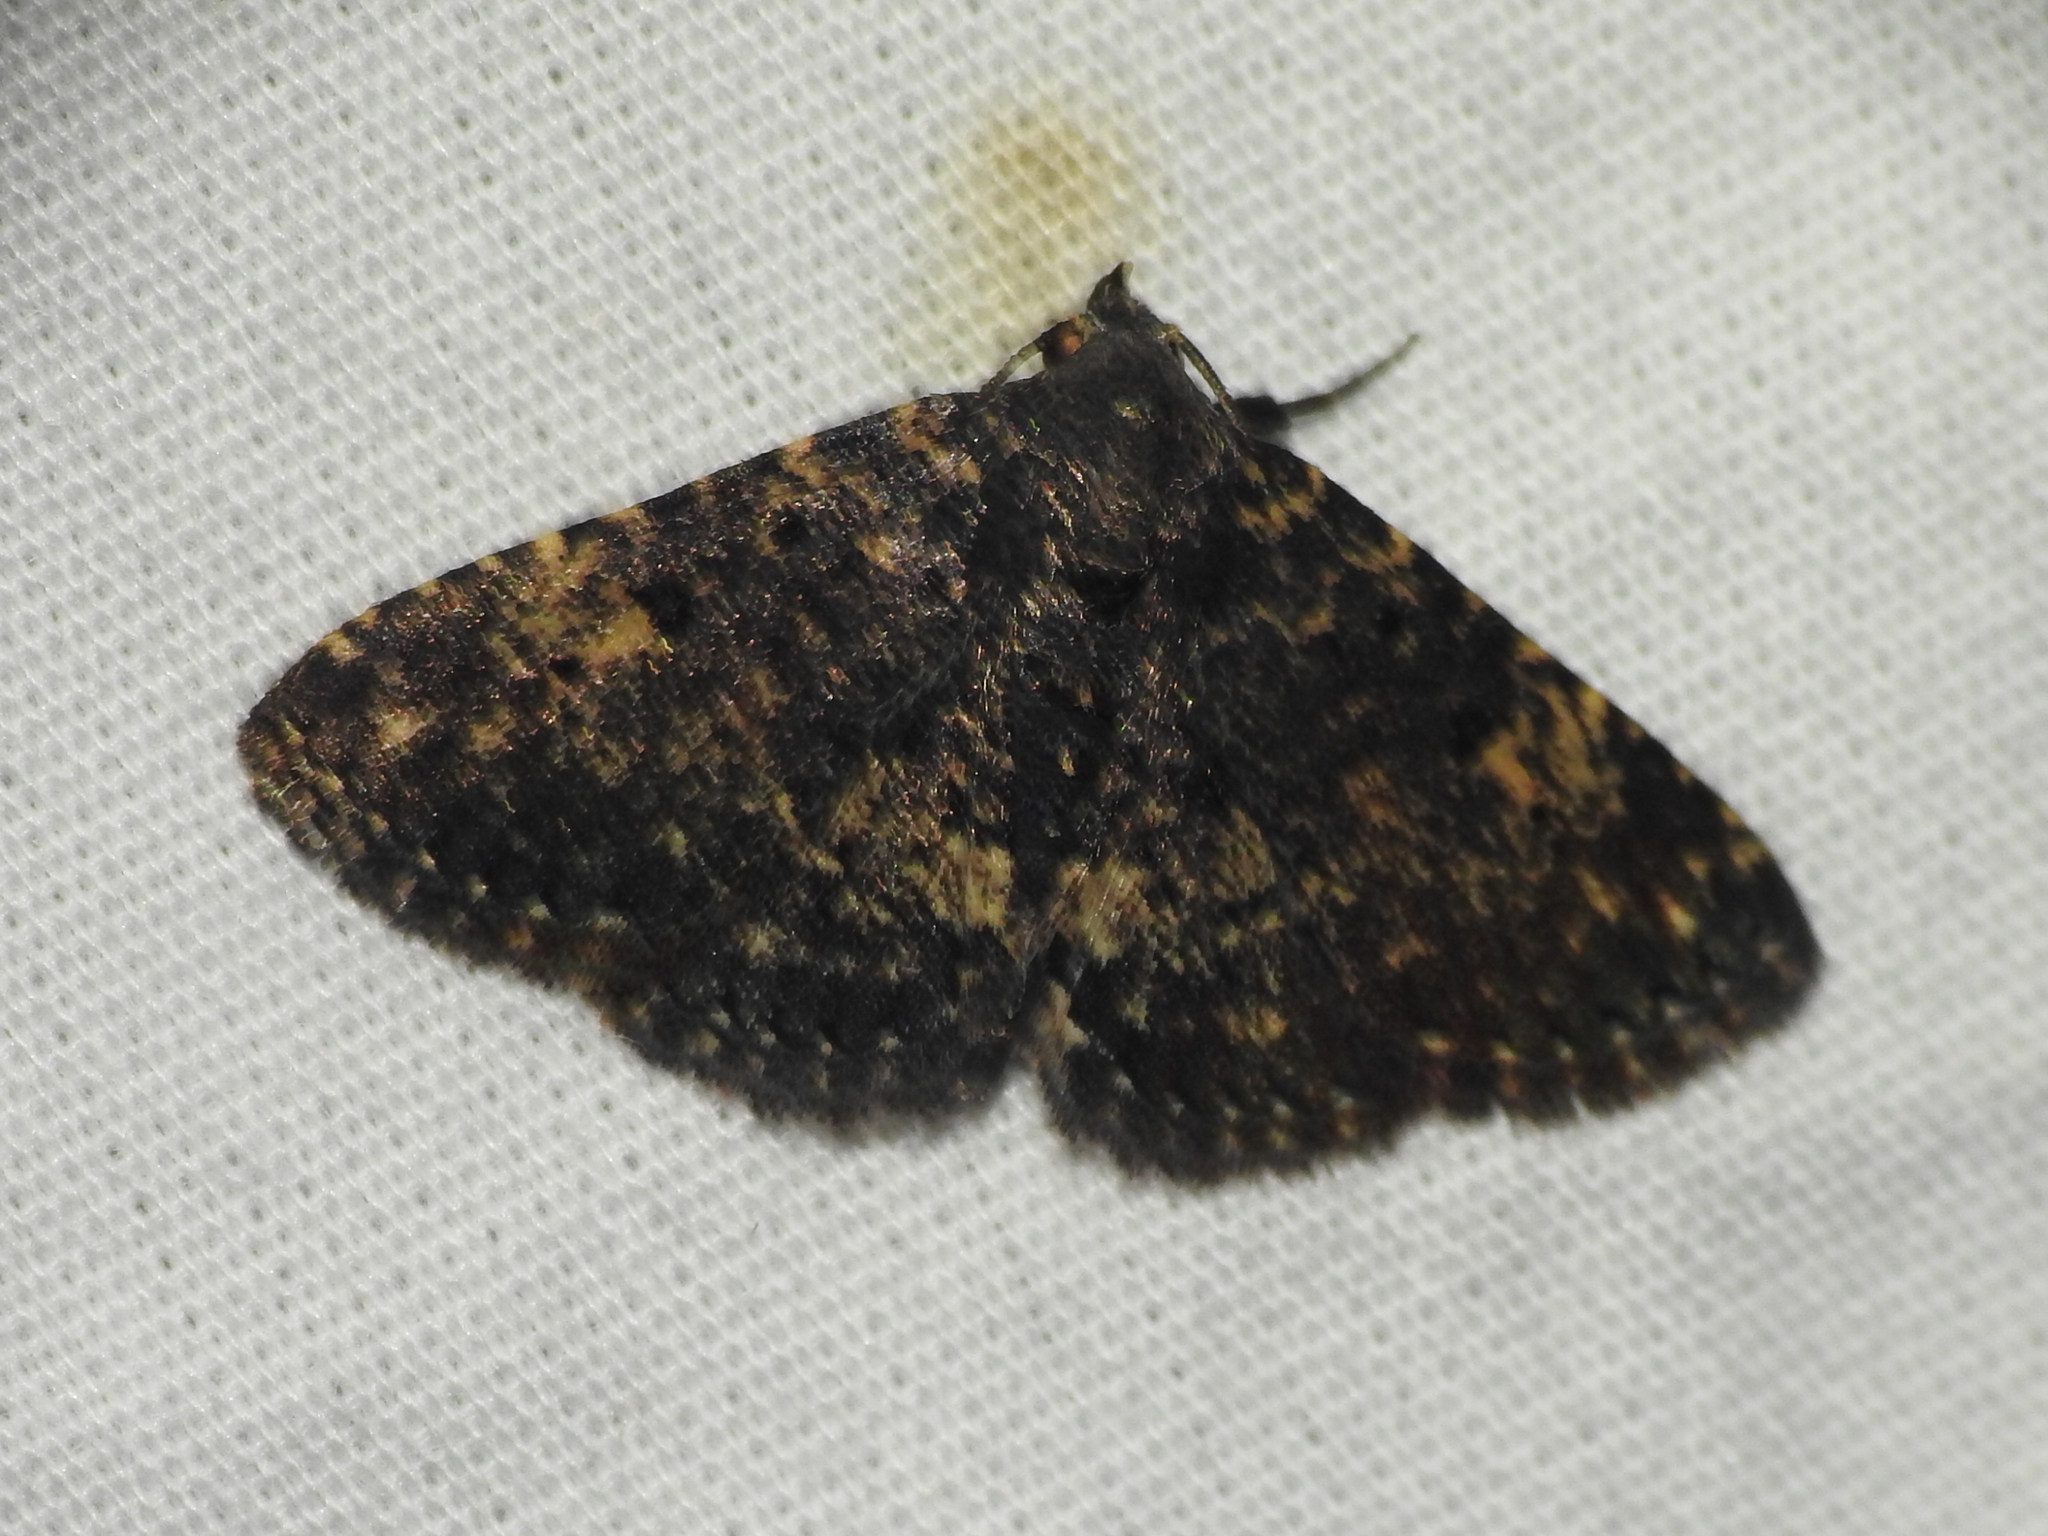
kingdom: Animalia
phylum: Arthropoda
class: Insecta
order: Lepidoptera
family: Erebidae
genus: Metalectra
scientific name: Metalectra diabolica
